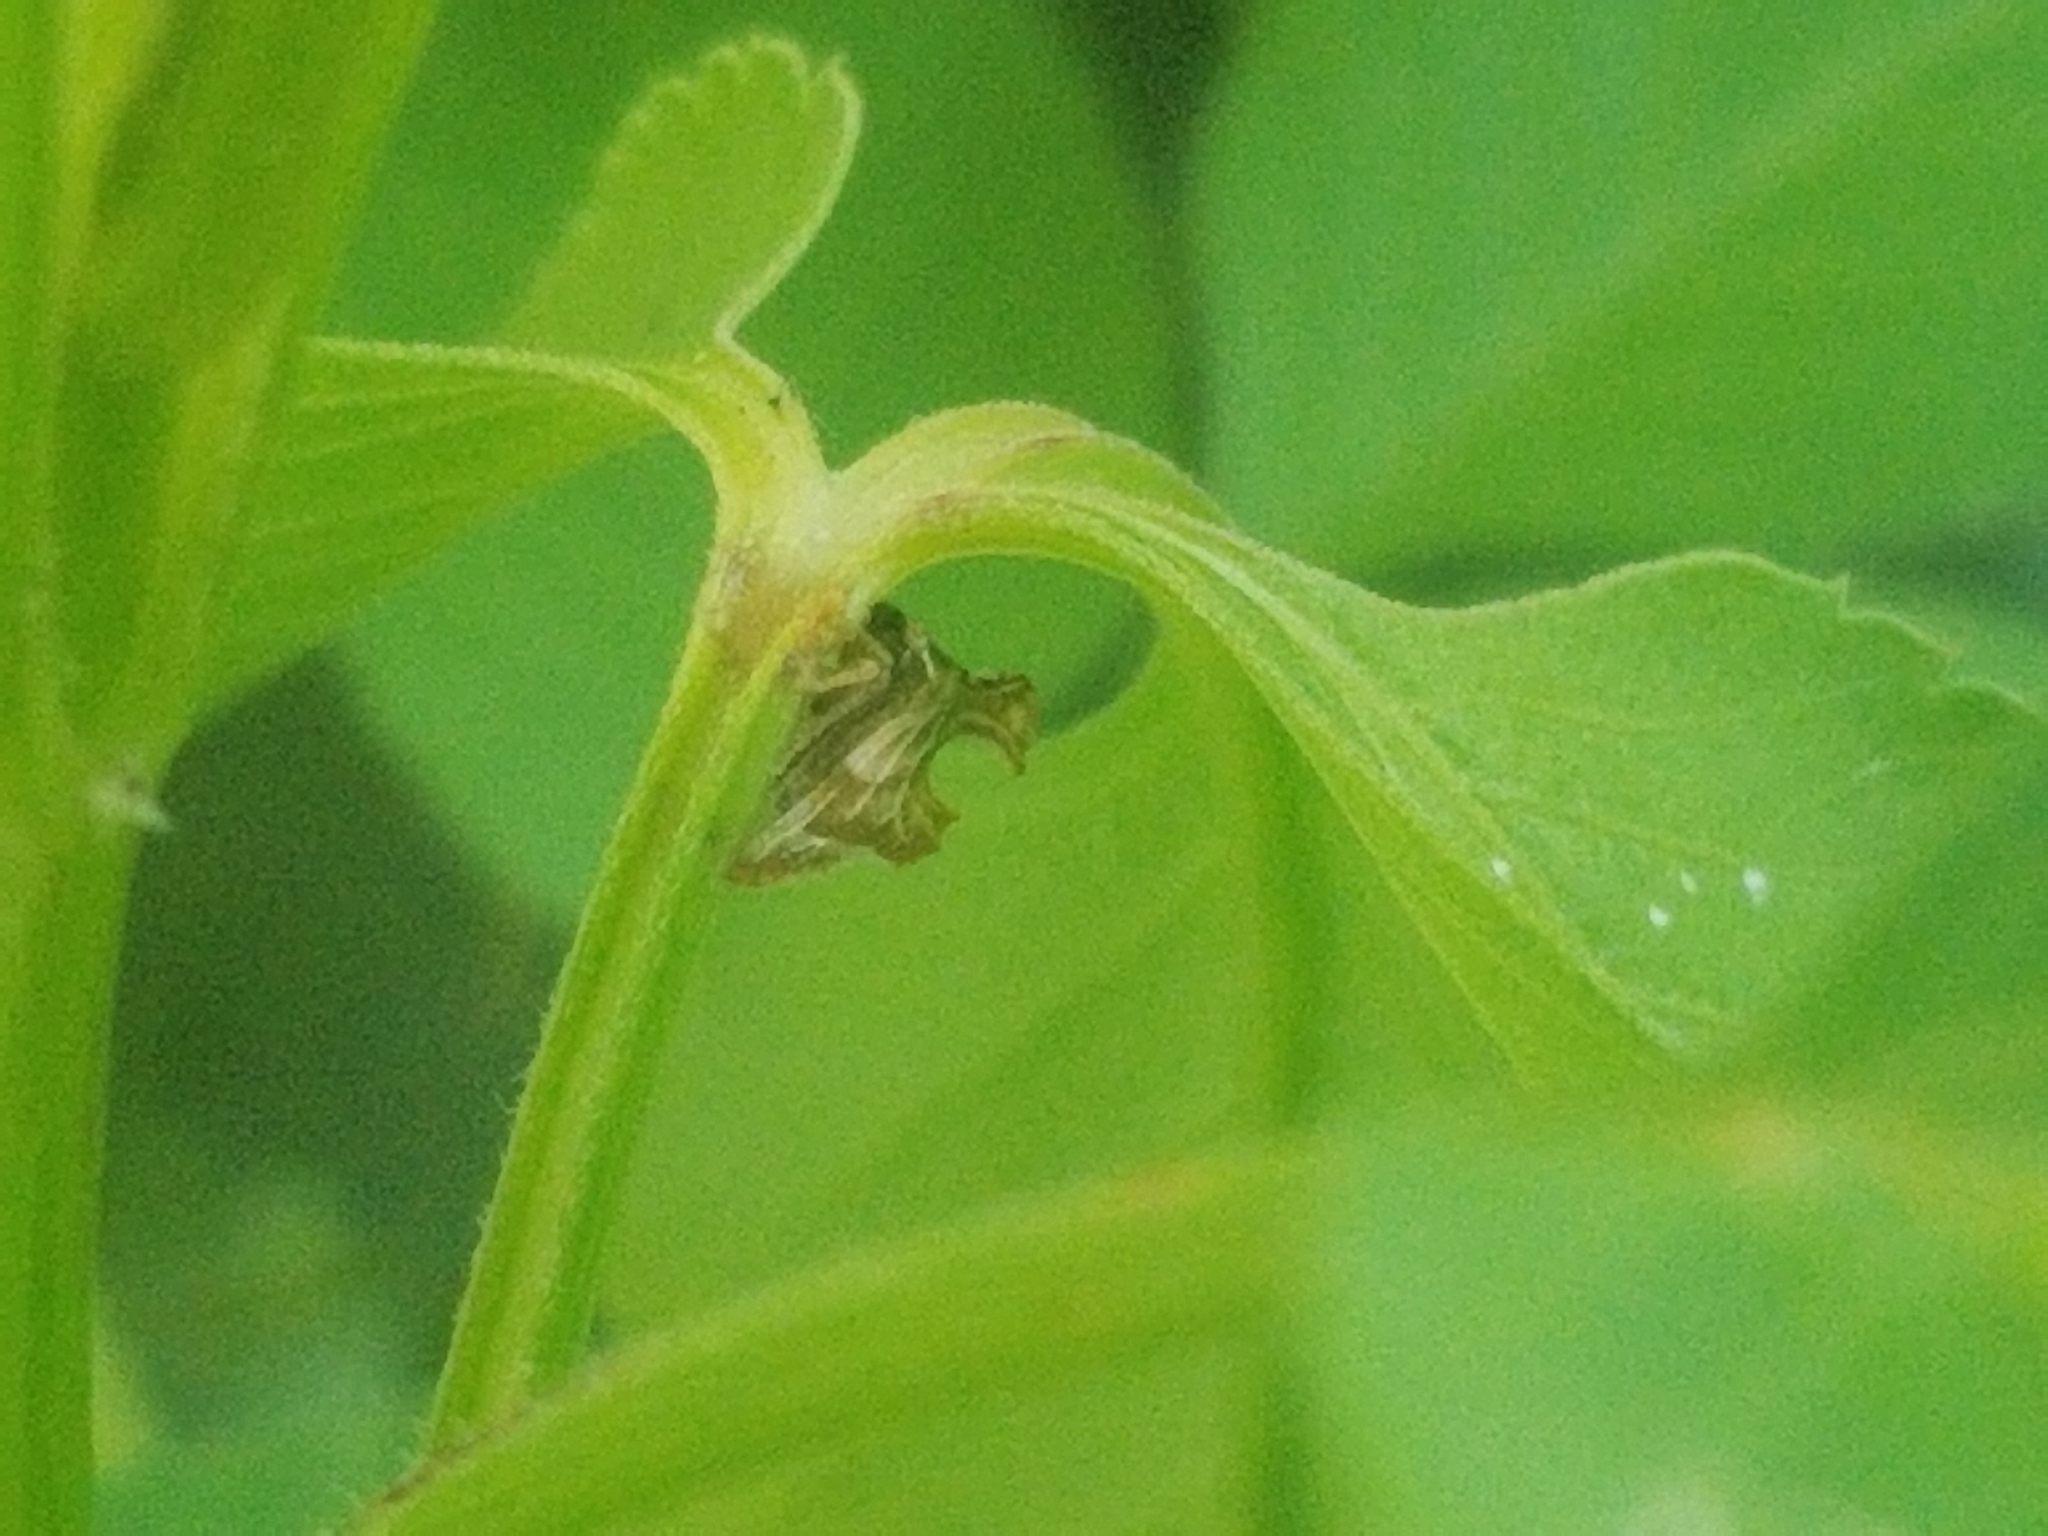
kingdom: Animalia
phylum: Arthropoda
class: Insecta
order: Hemiptera
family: Membracidae
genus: Entylia
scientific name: Entylia carinata
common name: Keeled treehopper
